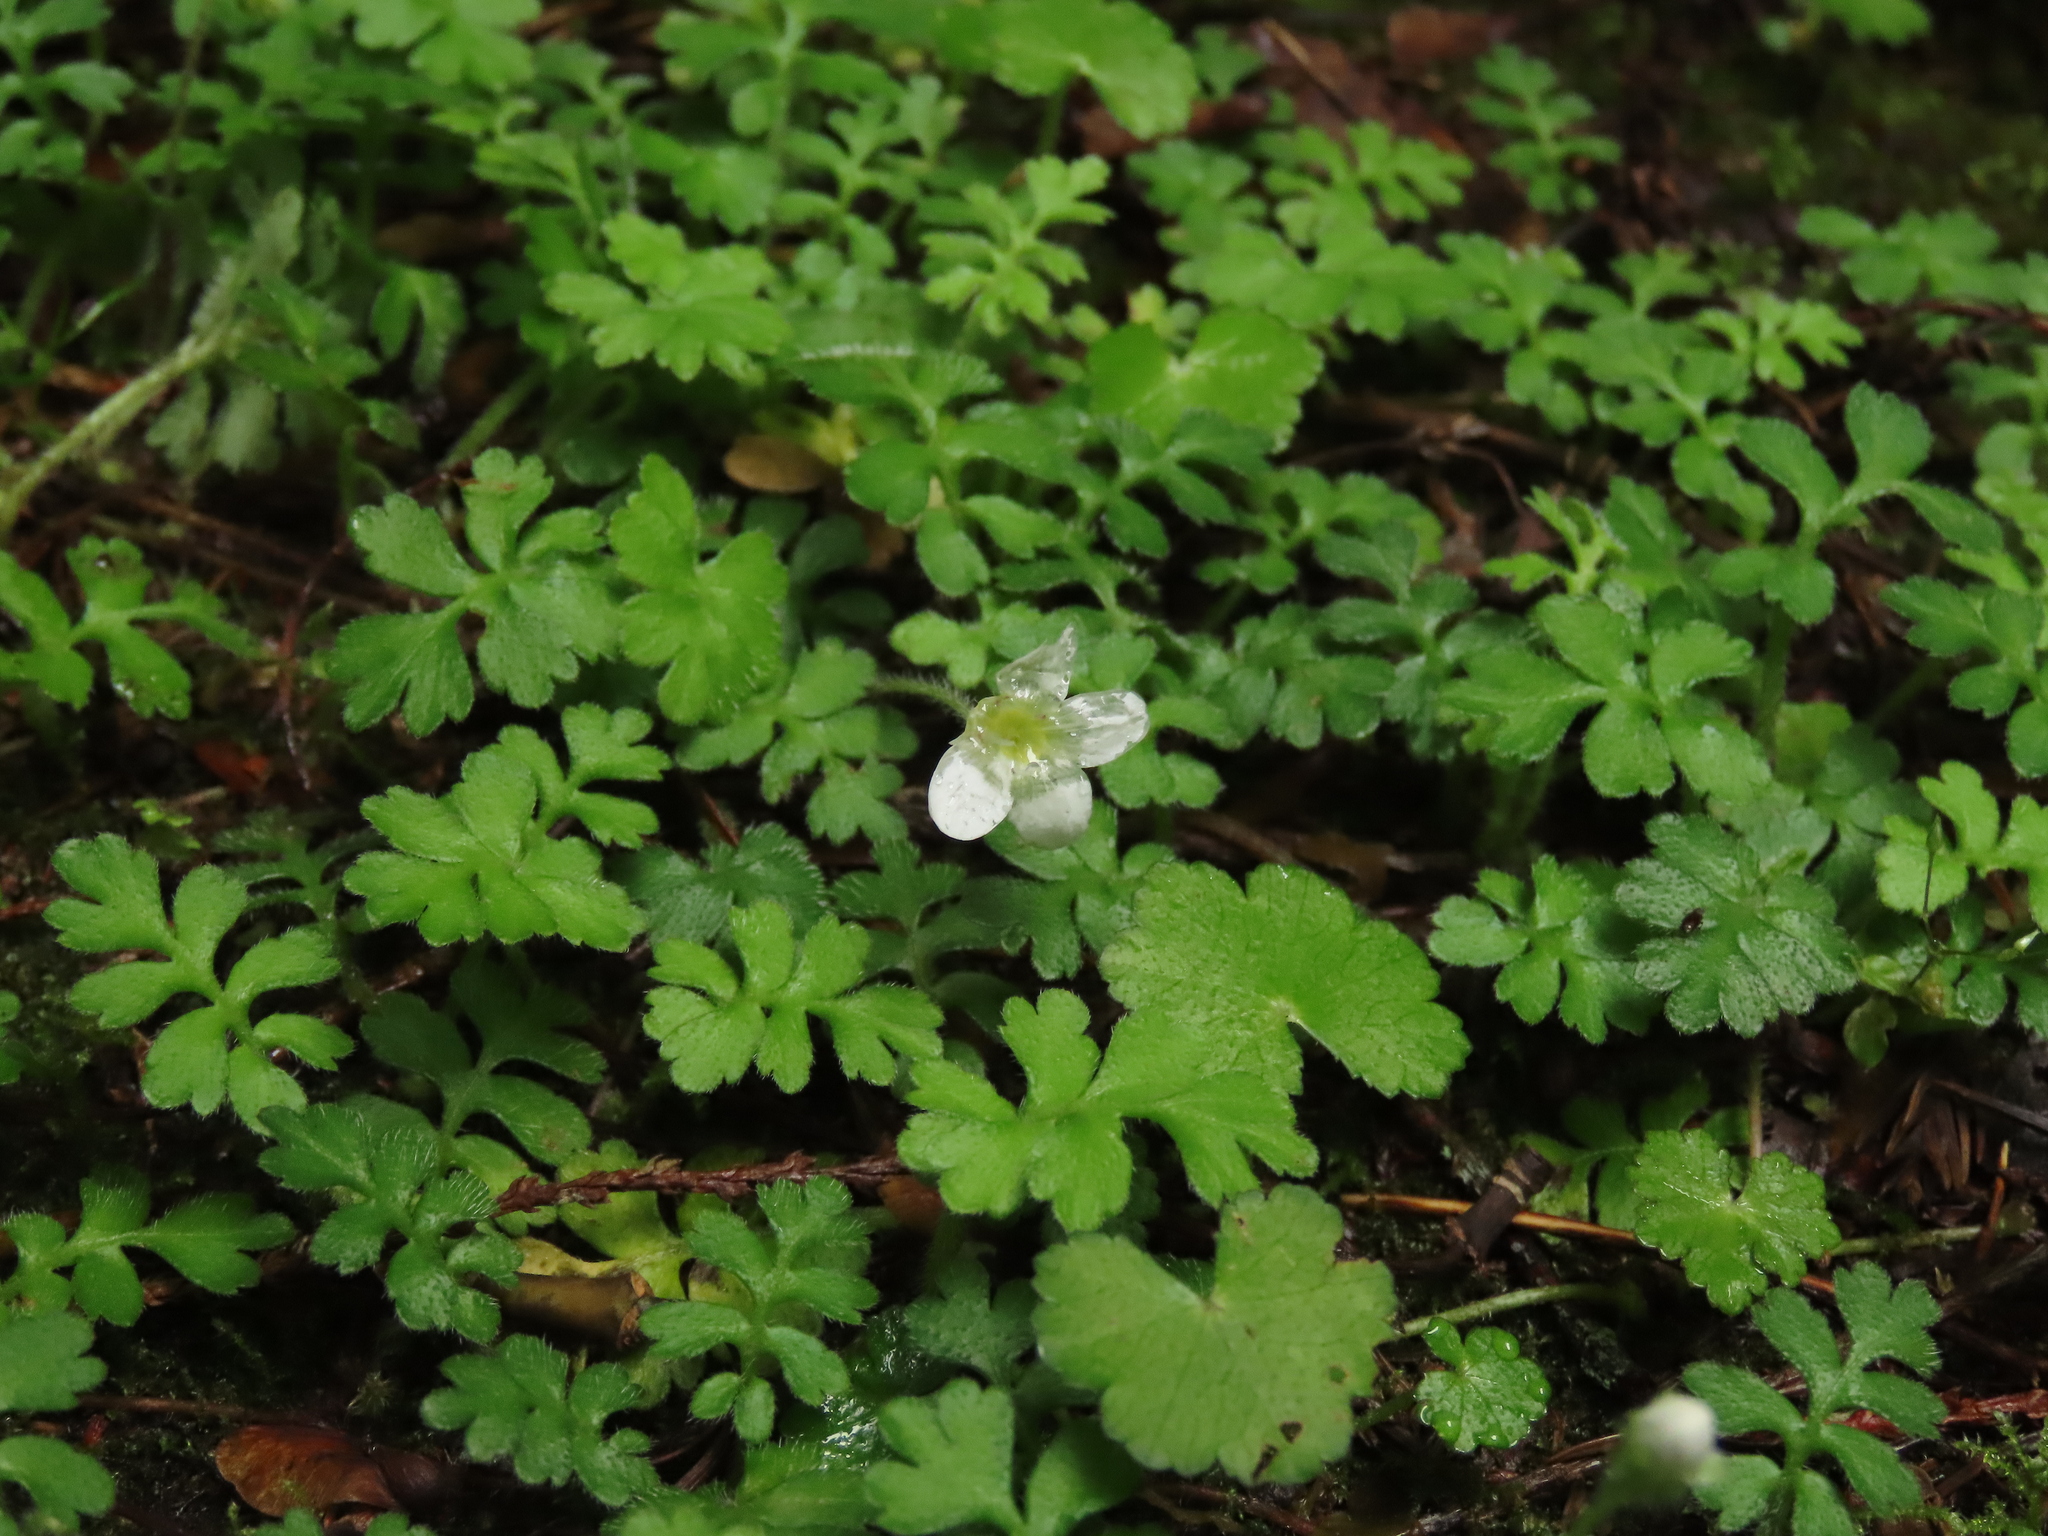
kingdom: Plantae
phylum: Tracheophyta
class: Magnoliopsida
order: Lamiales
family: Plantaginaceae
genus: Ellisiophyllum
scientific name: Ellisiophyllum pinnatum
